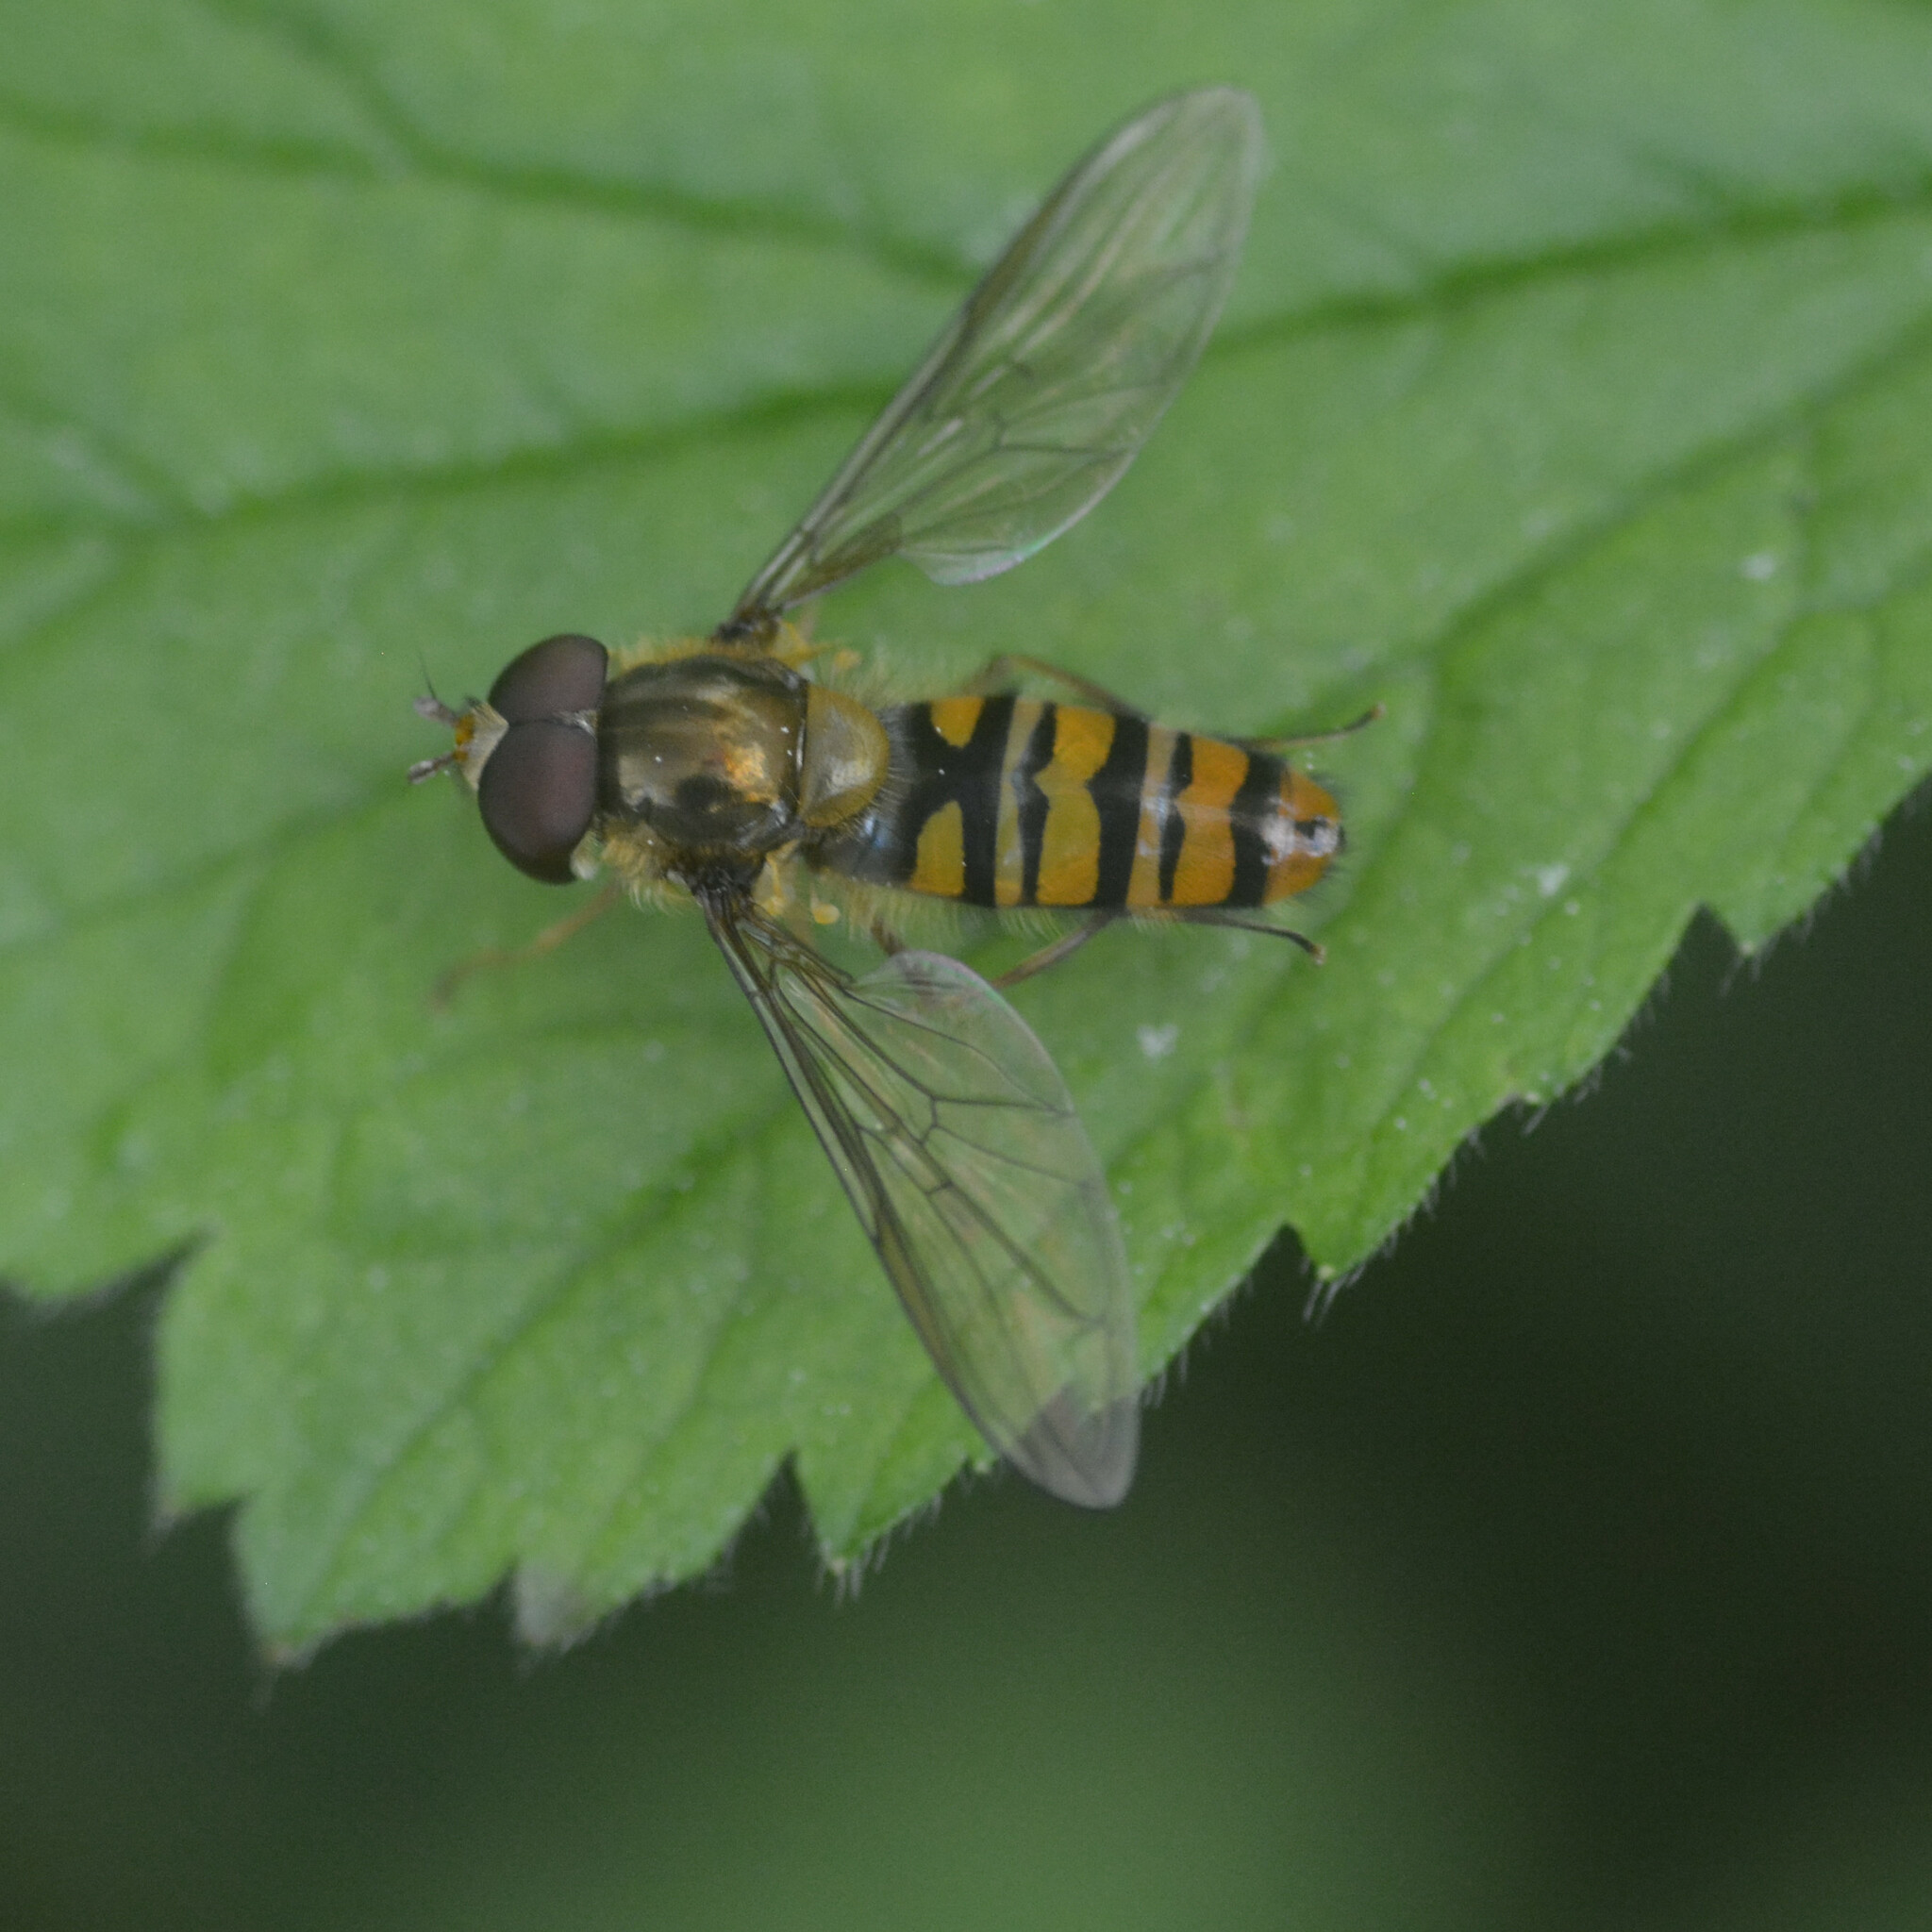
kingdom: Animalia
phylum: Arthropoda
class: Insecta
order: Diptera
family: Syrphidae
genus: Episyrphus
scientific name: Episyrphus balteatus
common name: Marmalade hoverfly
